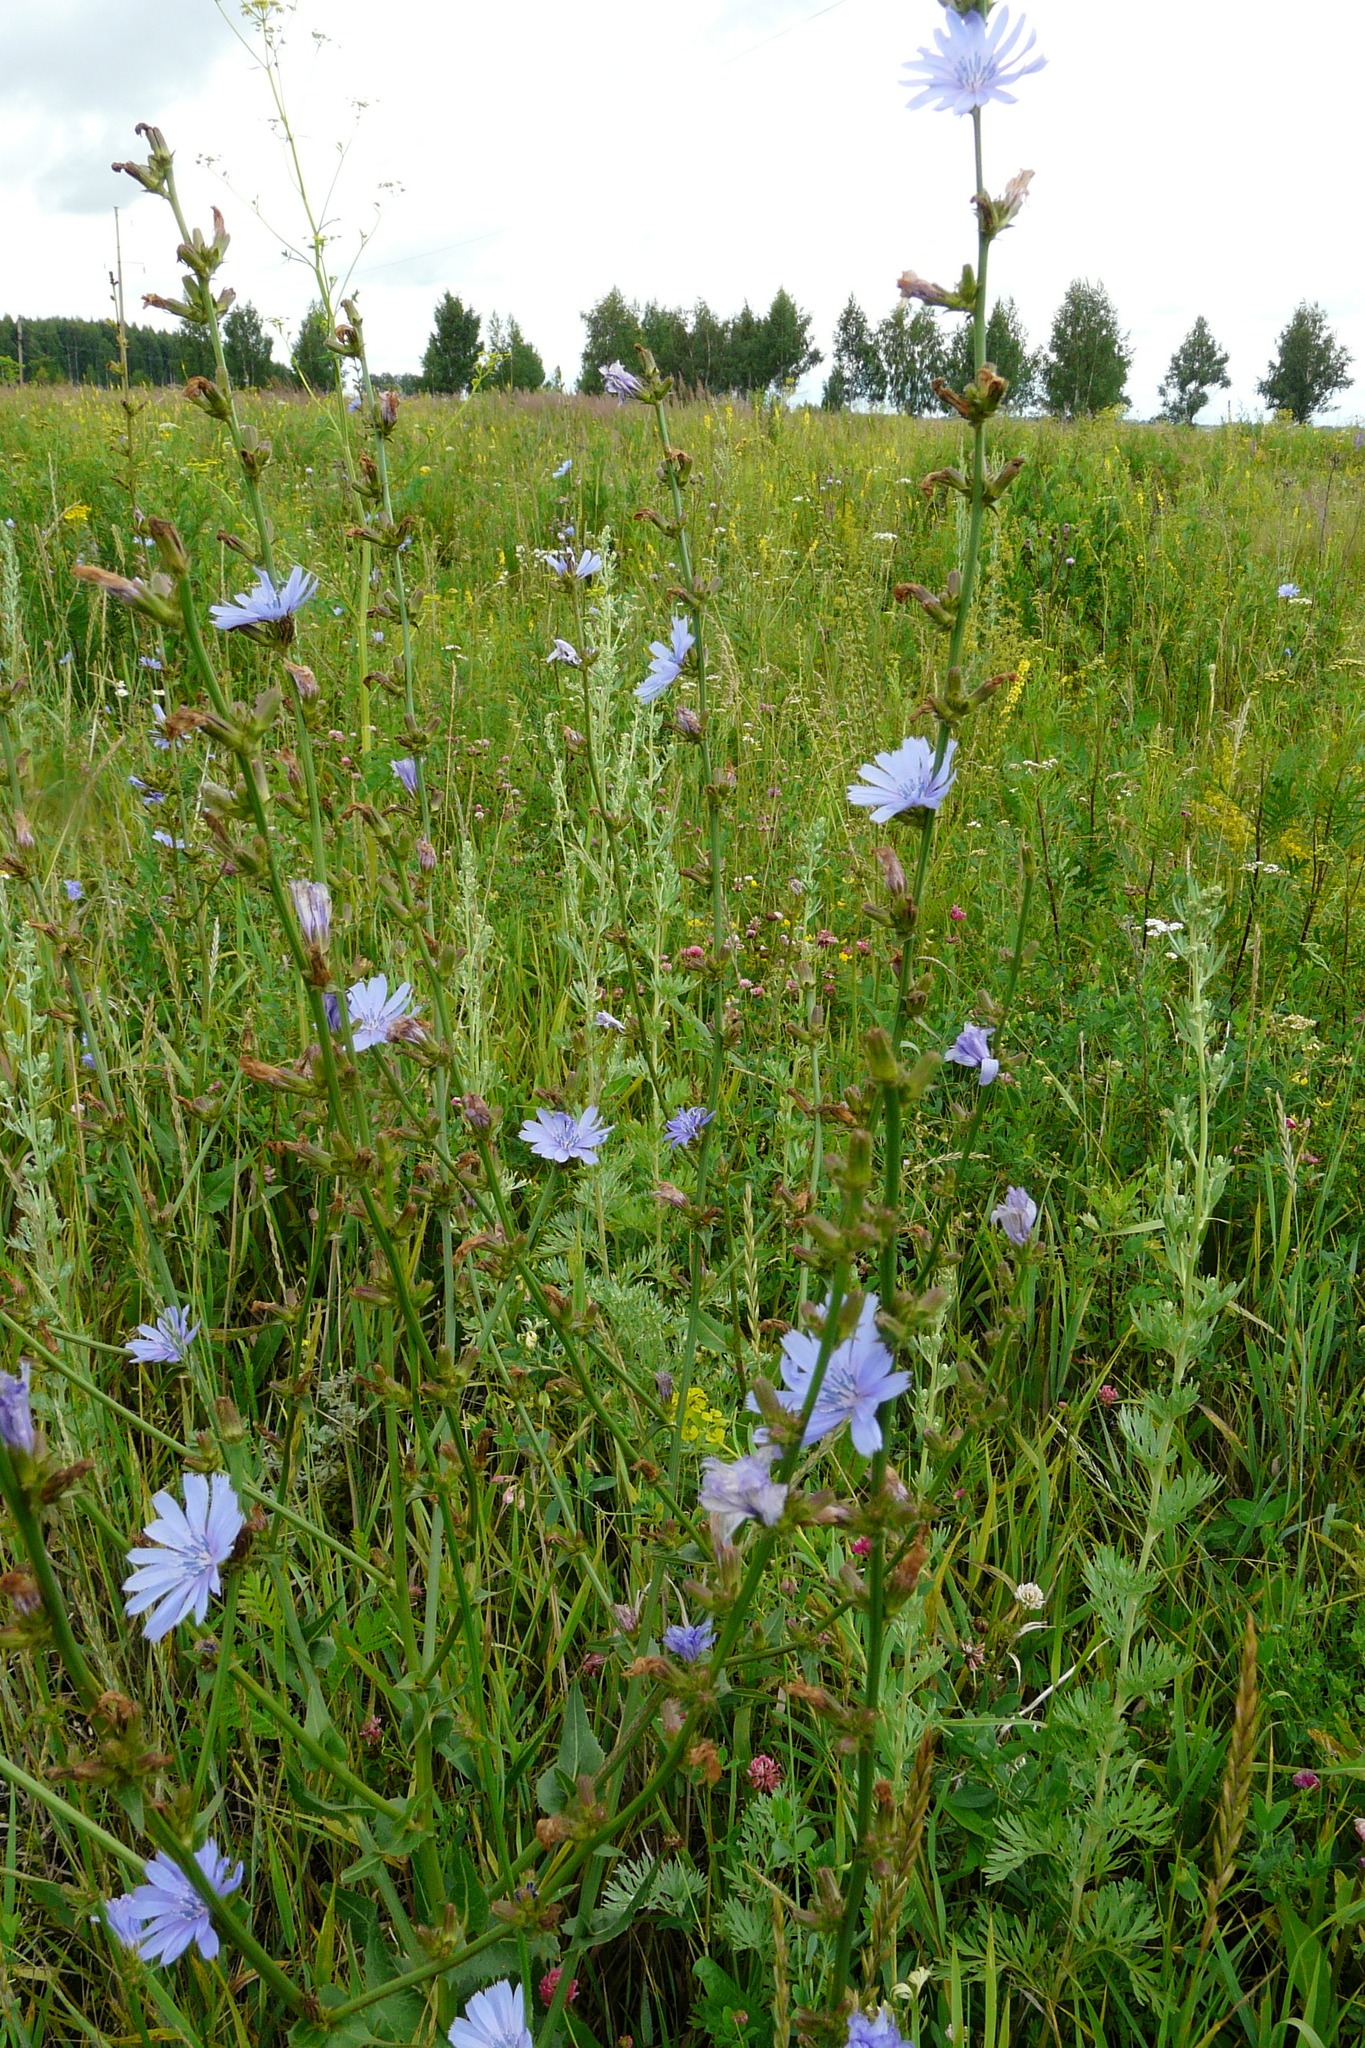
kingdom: Plantae
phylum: Tracheophyta
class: Magnoliopsida
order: Asterales
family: Asteraceae
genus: Cichorium
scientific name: Cichorium intybus
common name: Chicory
